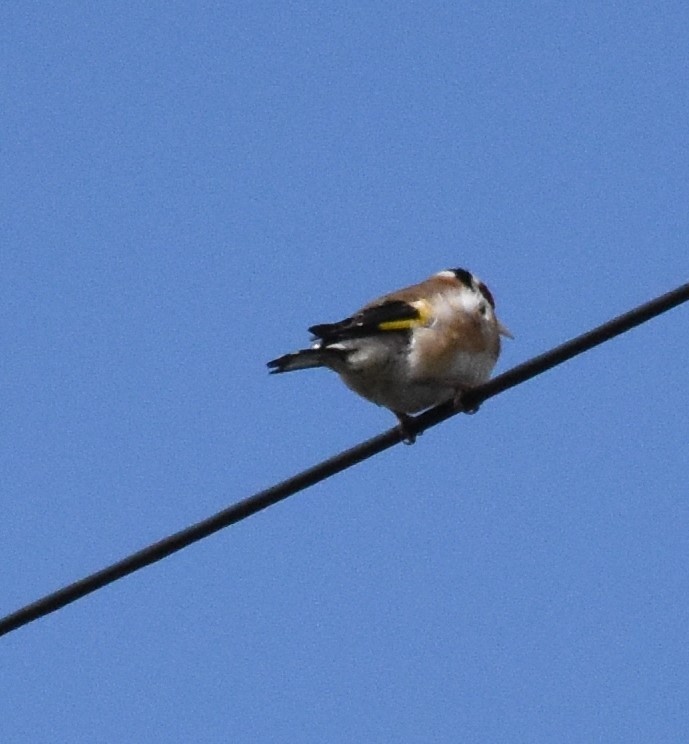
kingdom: Animalia
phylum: Chordata
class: Aves
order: Passeriformes
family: Fringillidae
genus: Carduelis
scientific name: Carduelis carduelis
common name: European goldfinch
